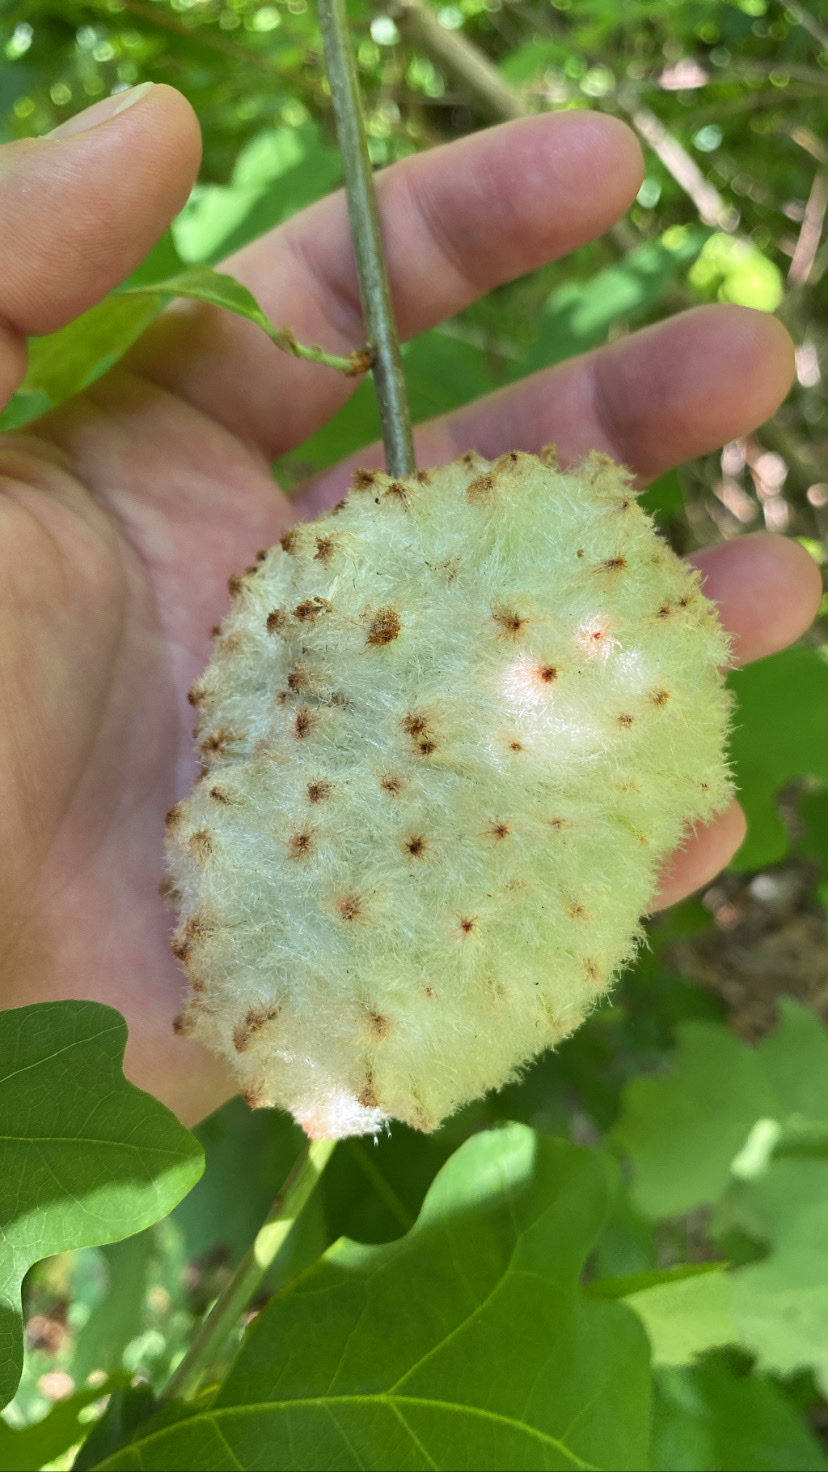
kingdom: Animalia
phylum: Arthropoda
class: Insecta
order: Hymenoptera
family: Cynipidae
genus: Callirhytis
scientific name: Callirhytis
